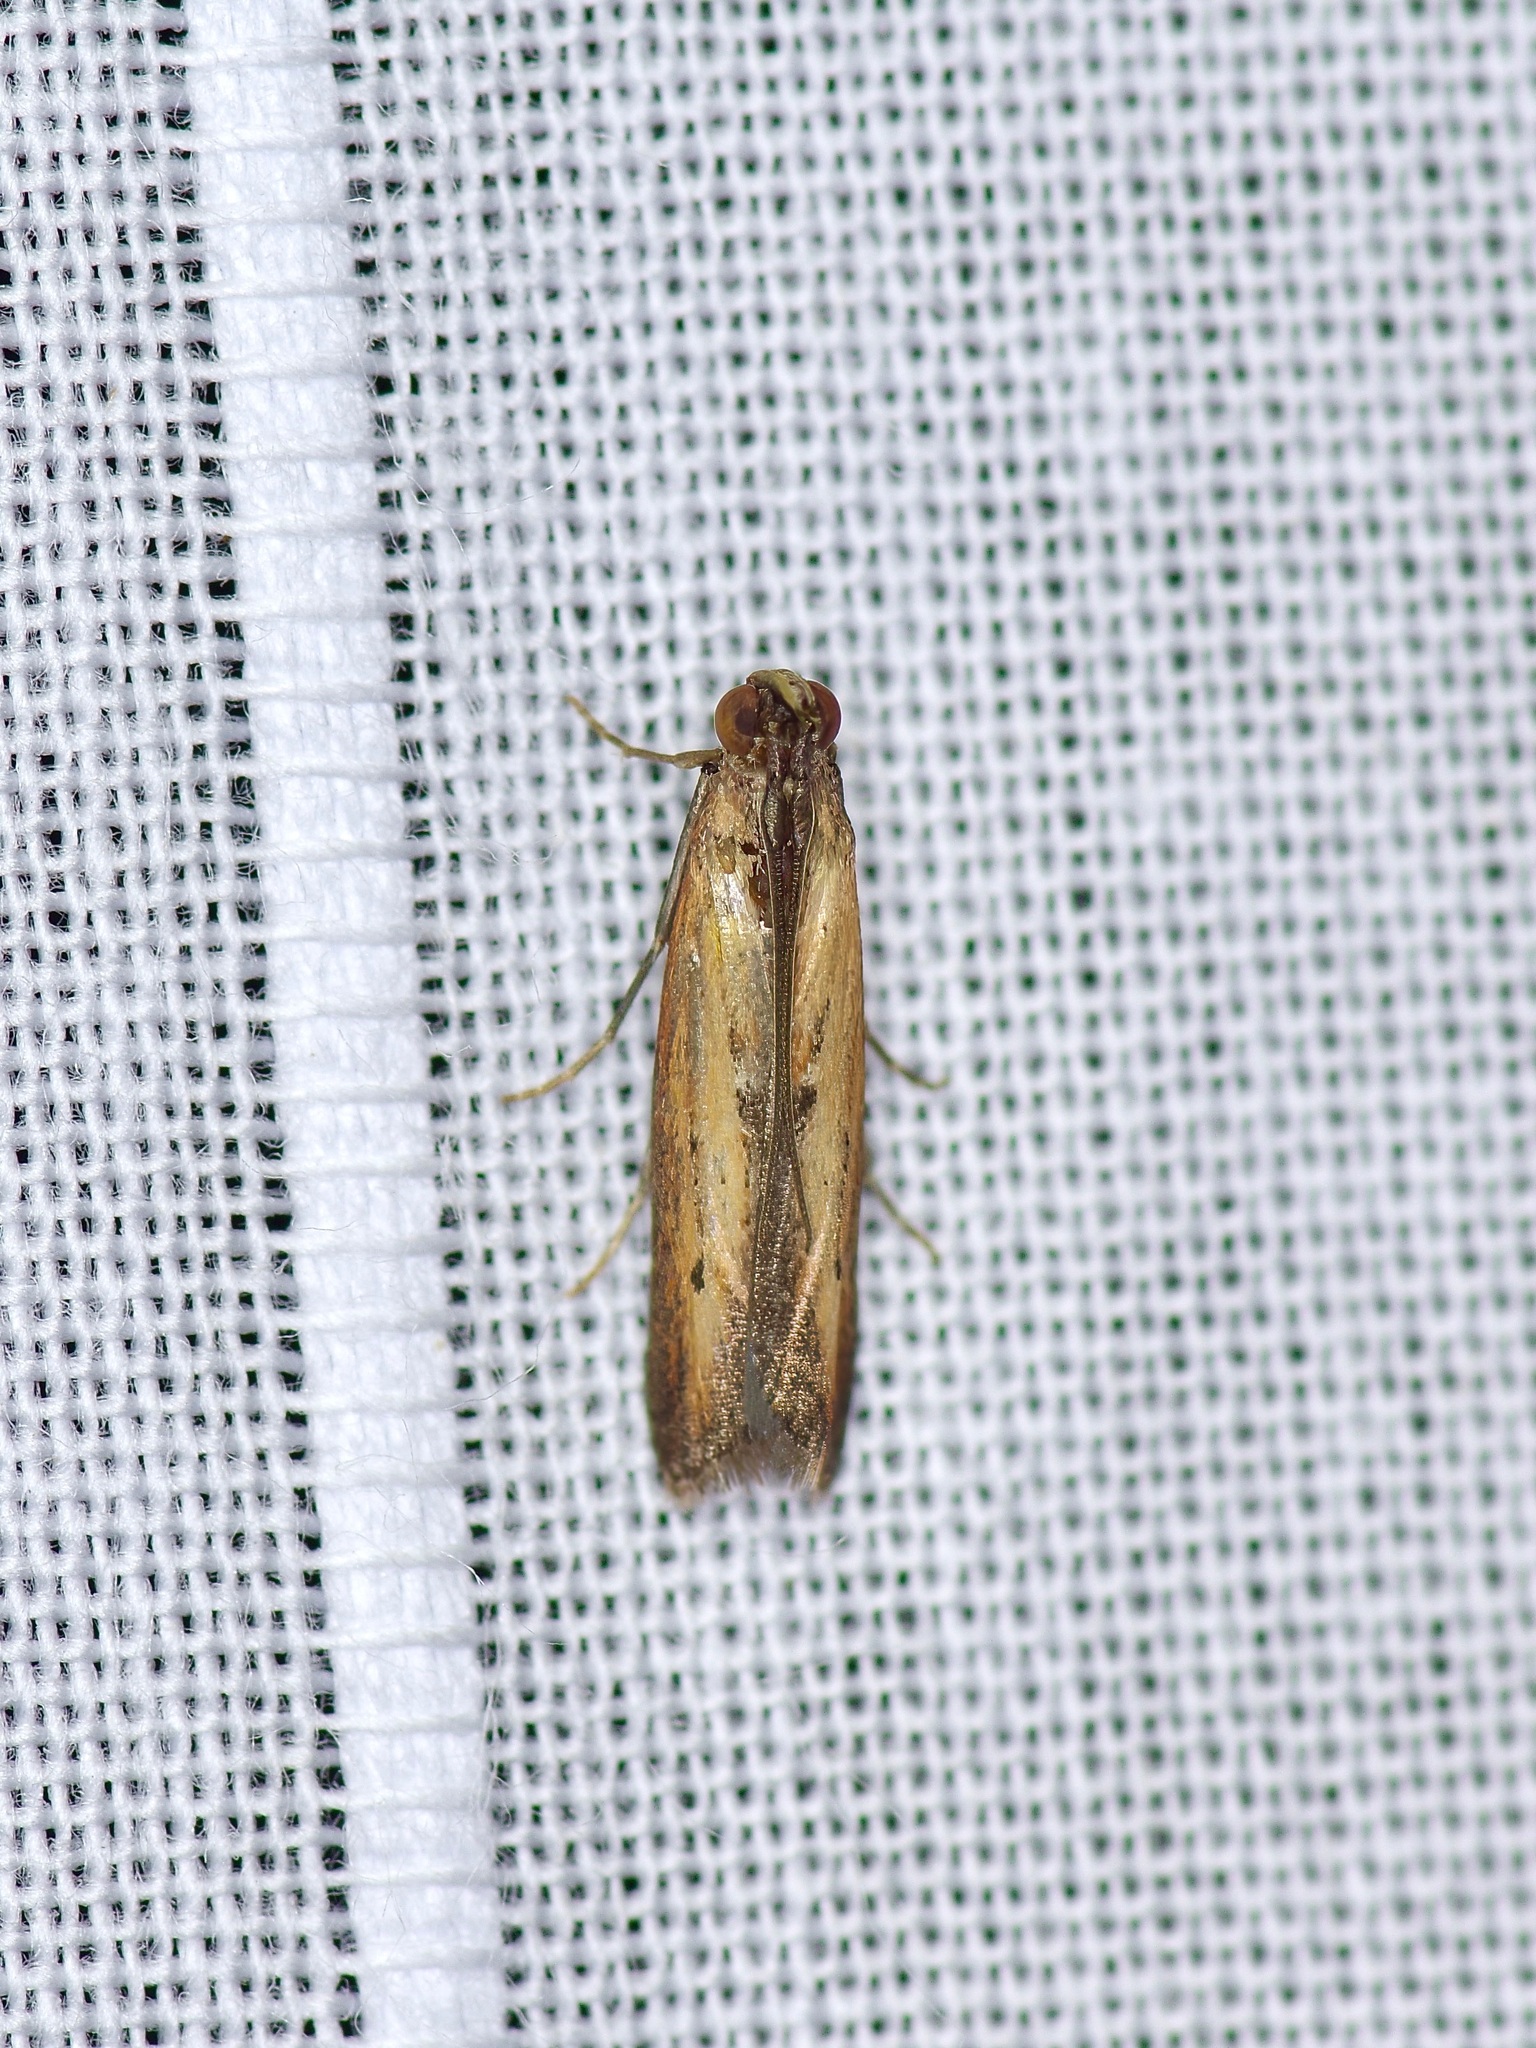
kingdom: Animalia
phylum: Arthropoda
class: Insecta
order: Lepidoptera
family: Pyralidae
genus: Elasmopalpus
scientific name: Elasmopalpus lignosella
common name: Lesser cornstalk borer
